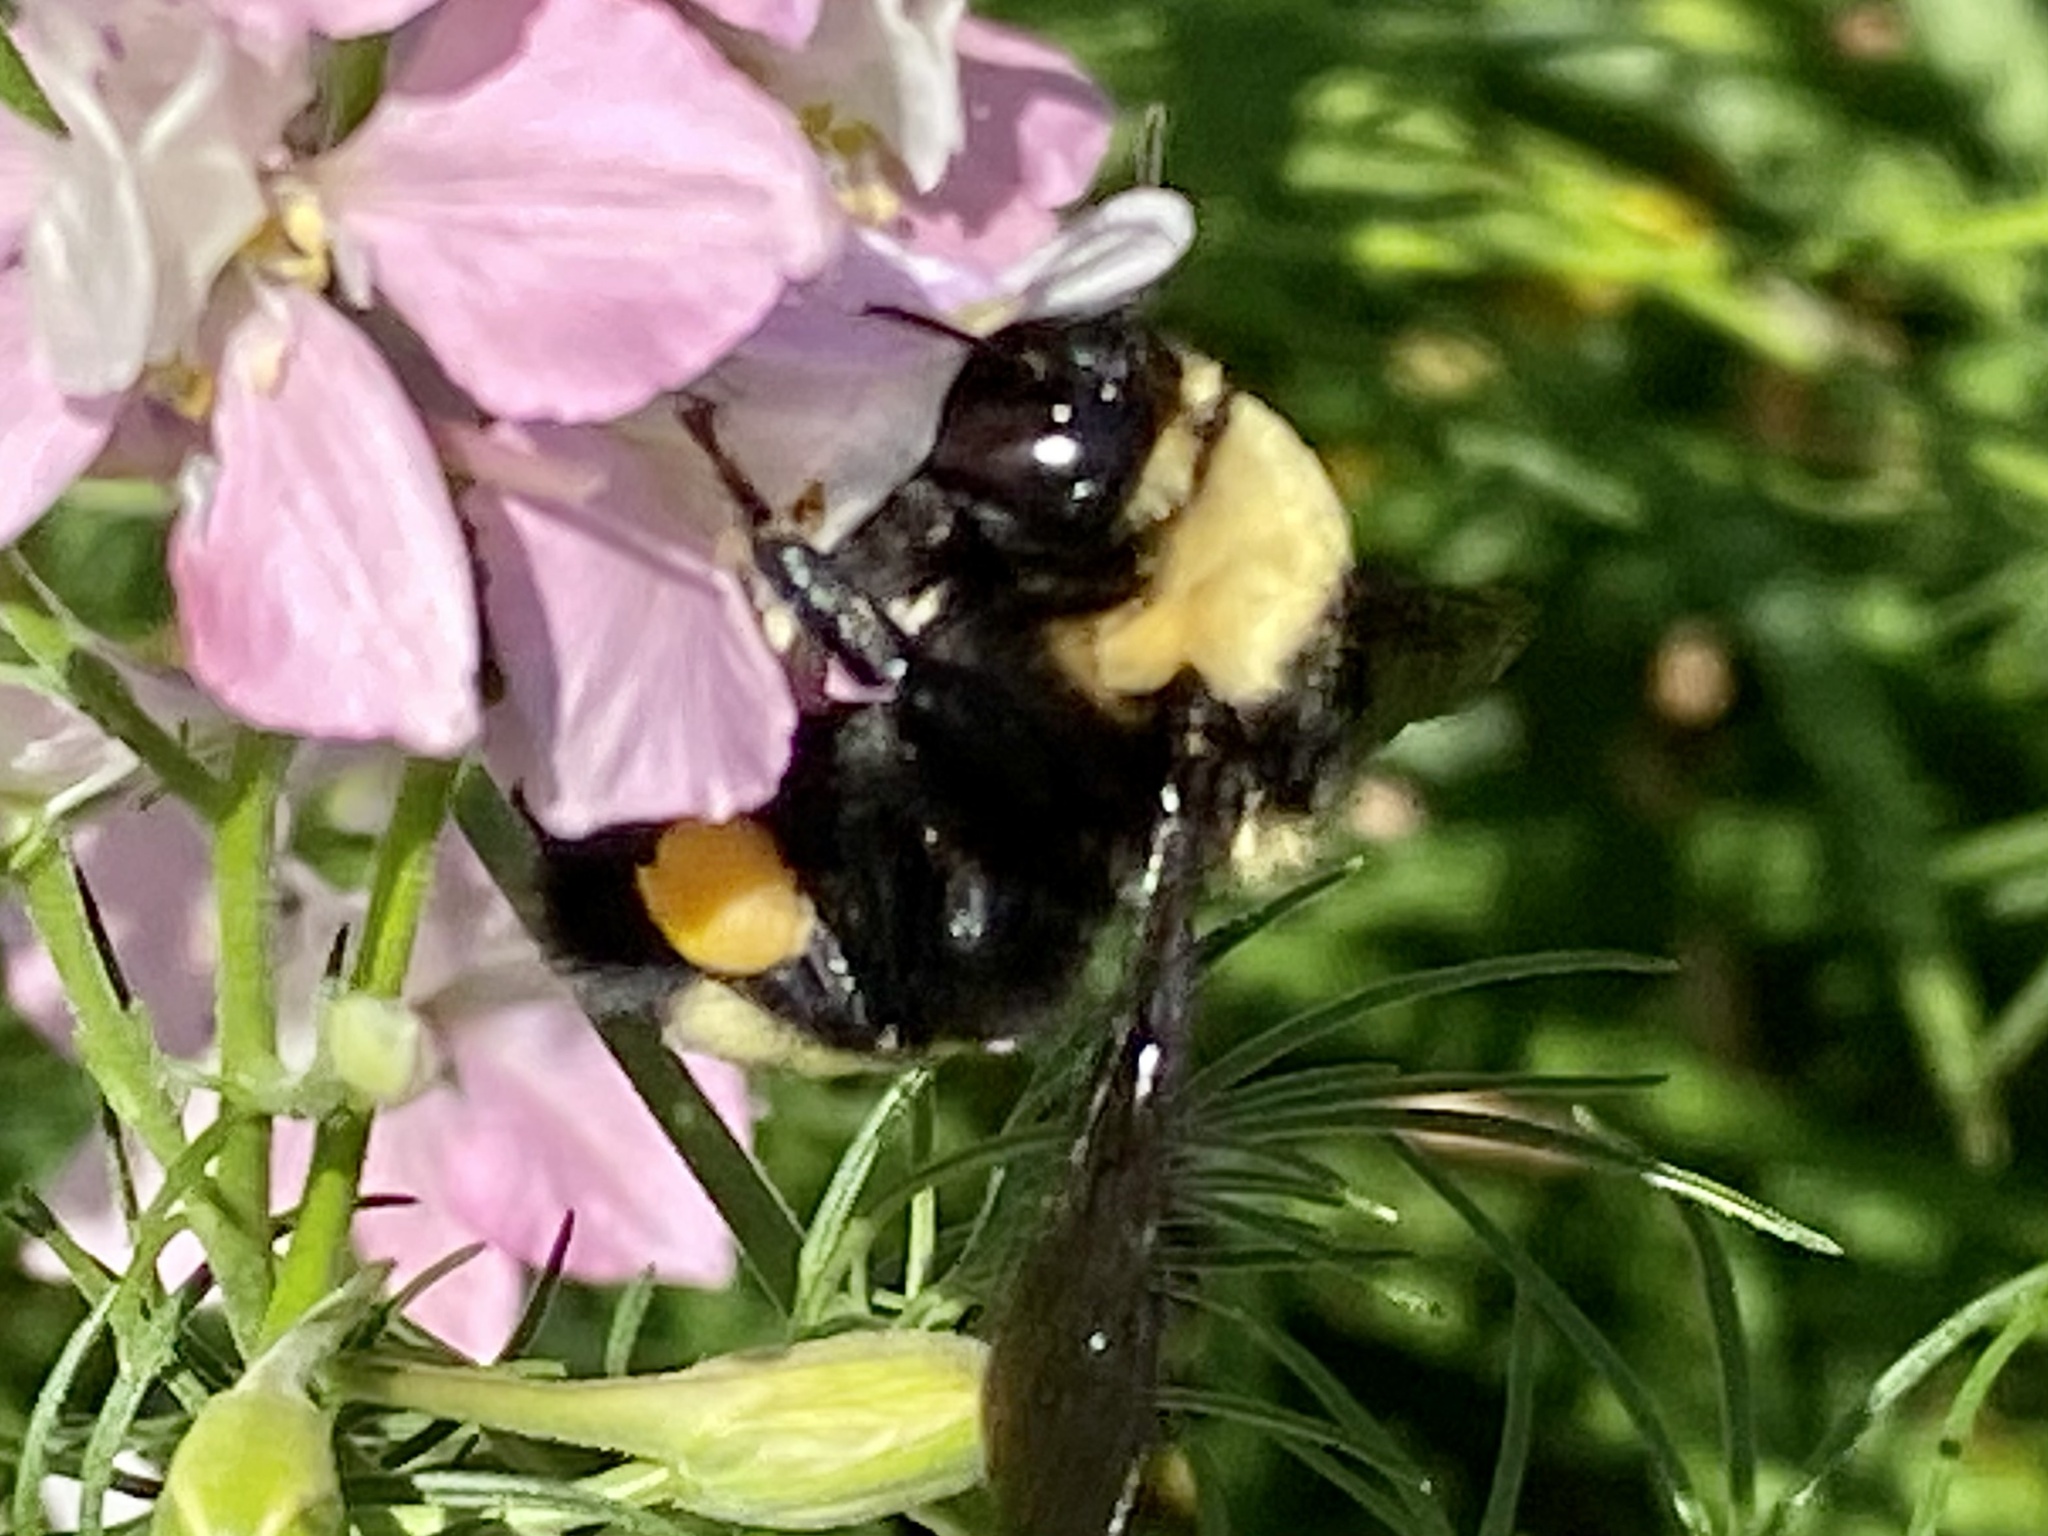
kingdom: Animalia
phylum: Arthropoda
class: Insecta
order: Hymenoptera
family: Apidae
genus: Bombus
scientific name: Bombus auricomus
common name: Black and gold bumble bee
